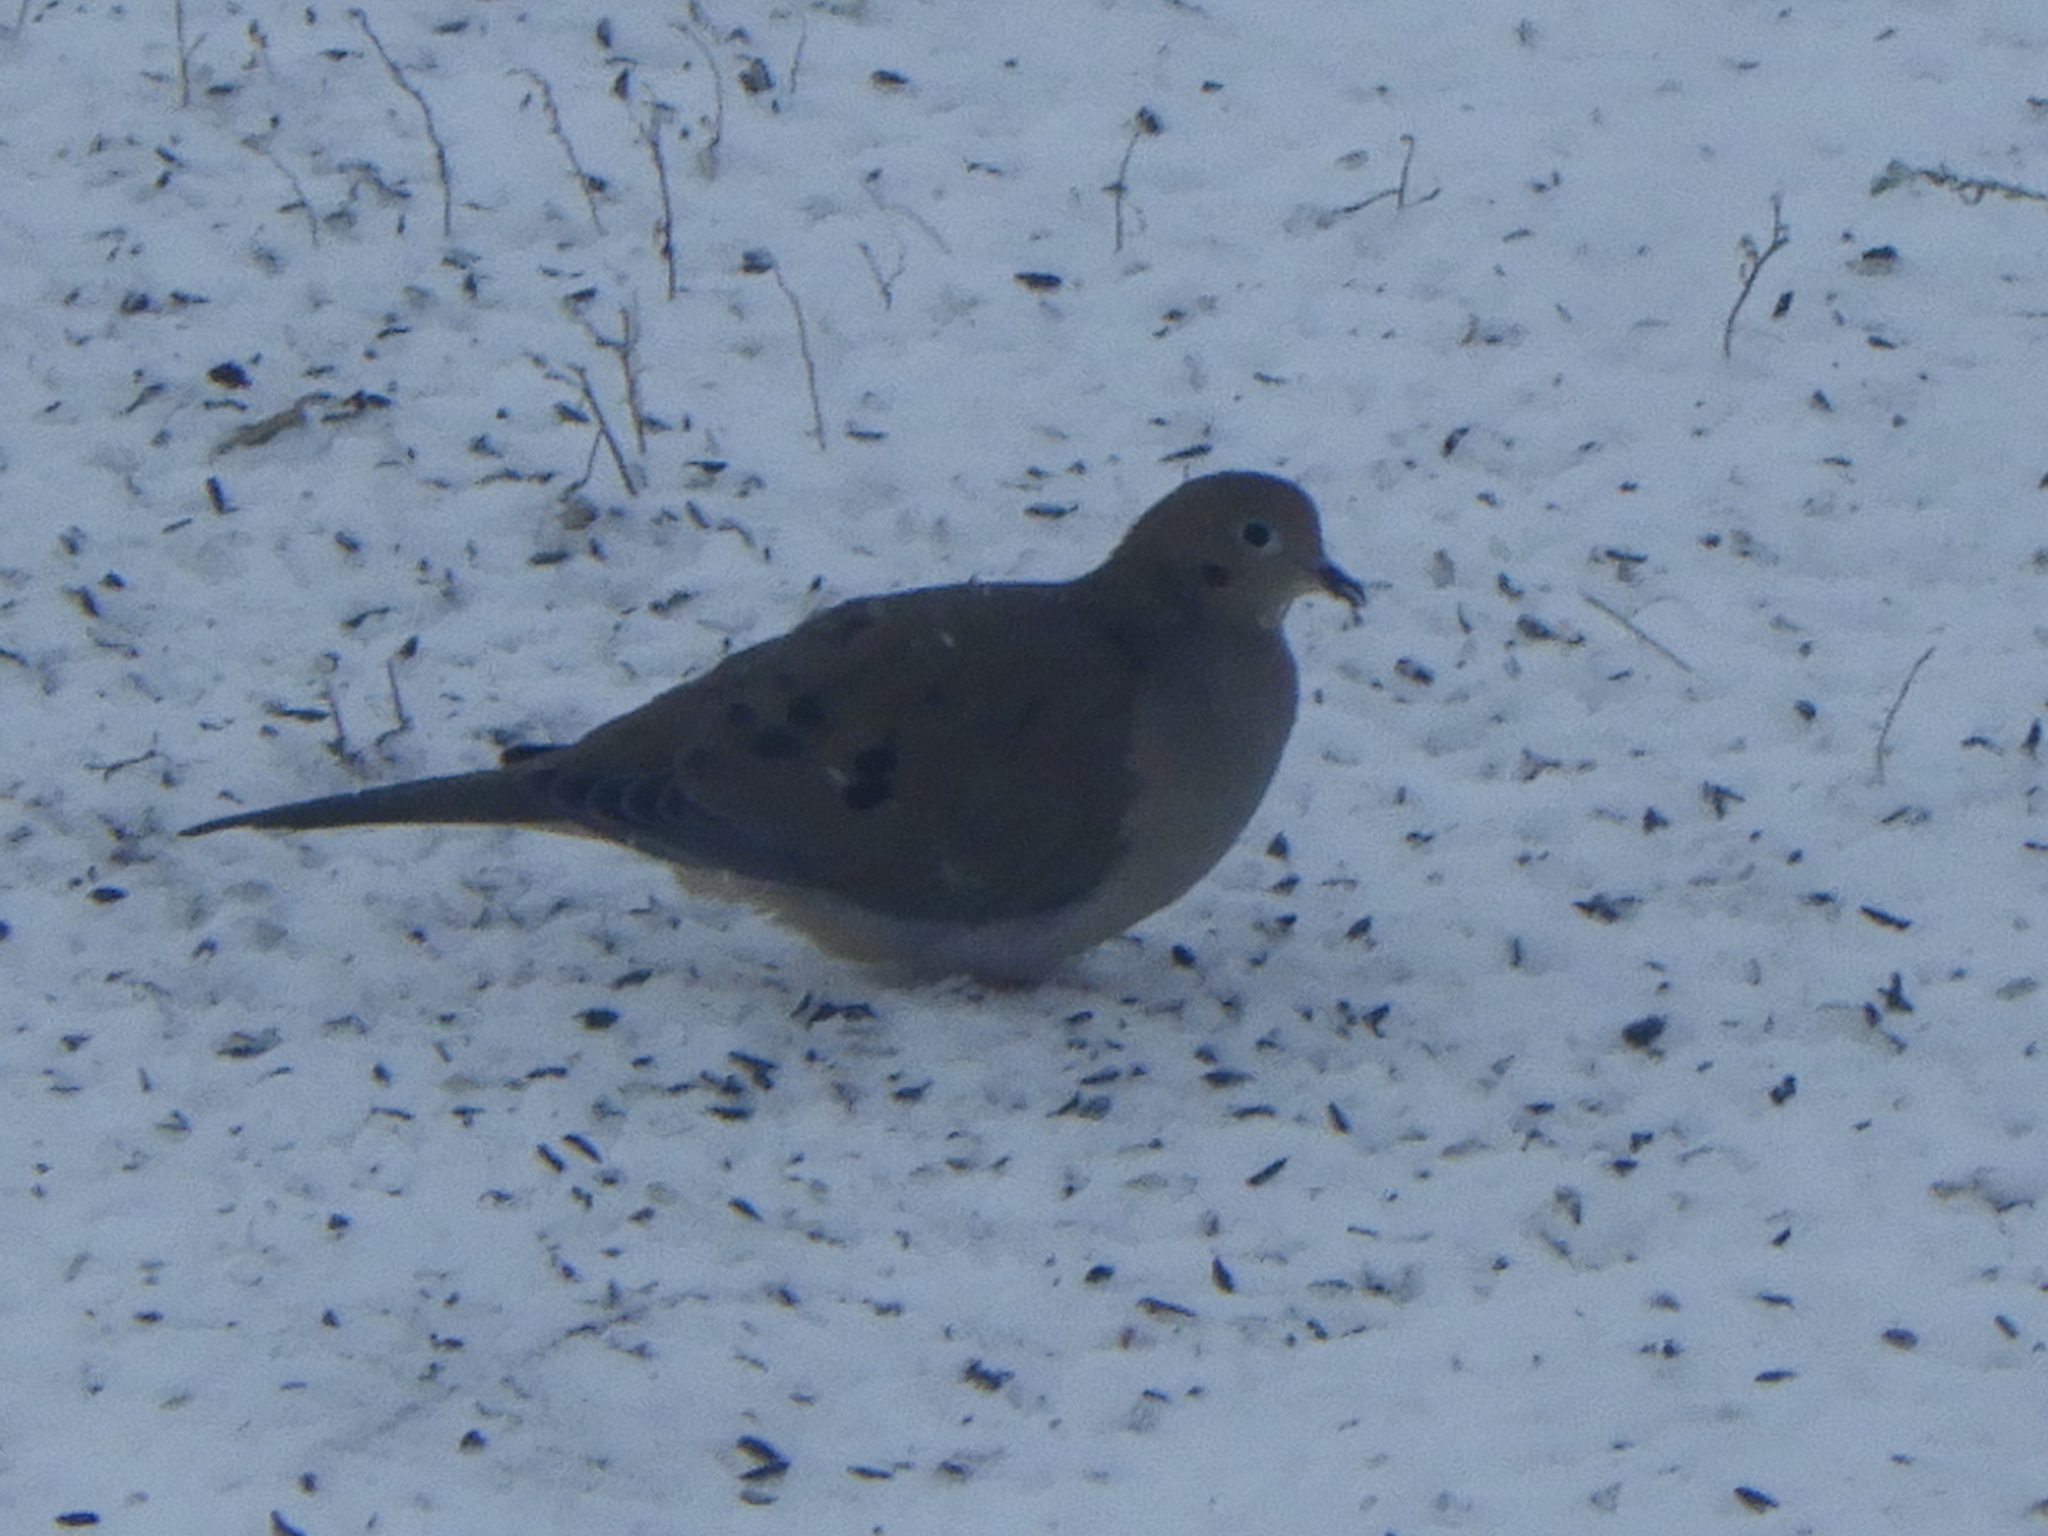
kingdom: Animalia
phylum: Chordata
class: Aves
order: Columbiformes
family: Columbidae
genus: Zenaida
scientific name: Zenaida macroura
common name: Mourning dove
